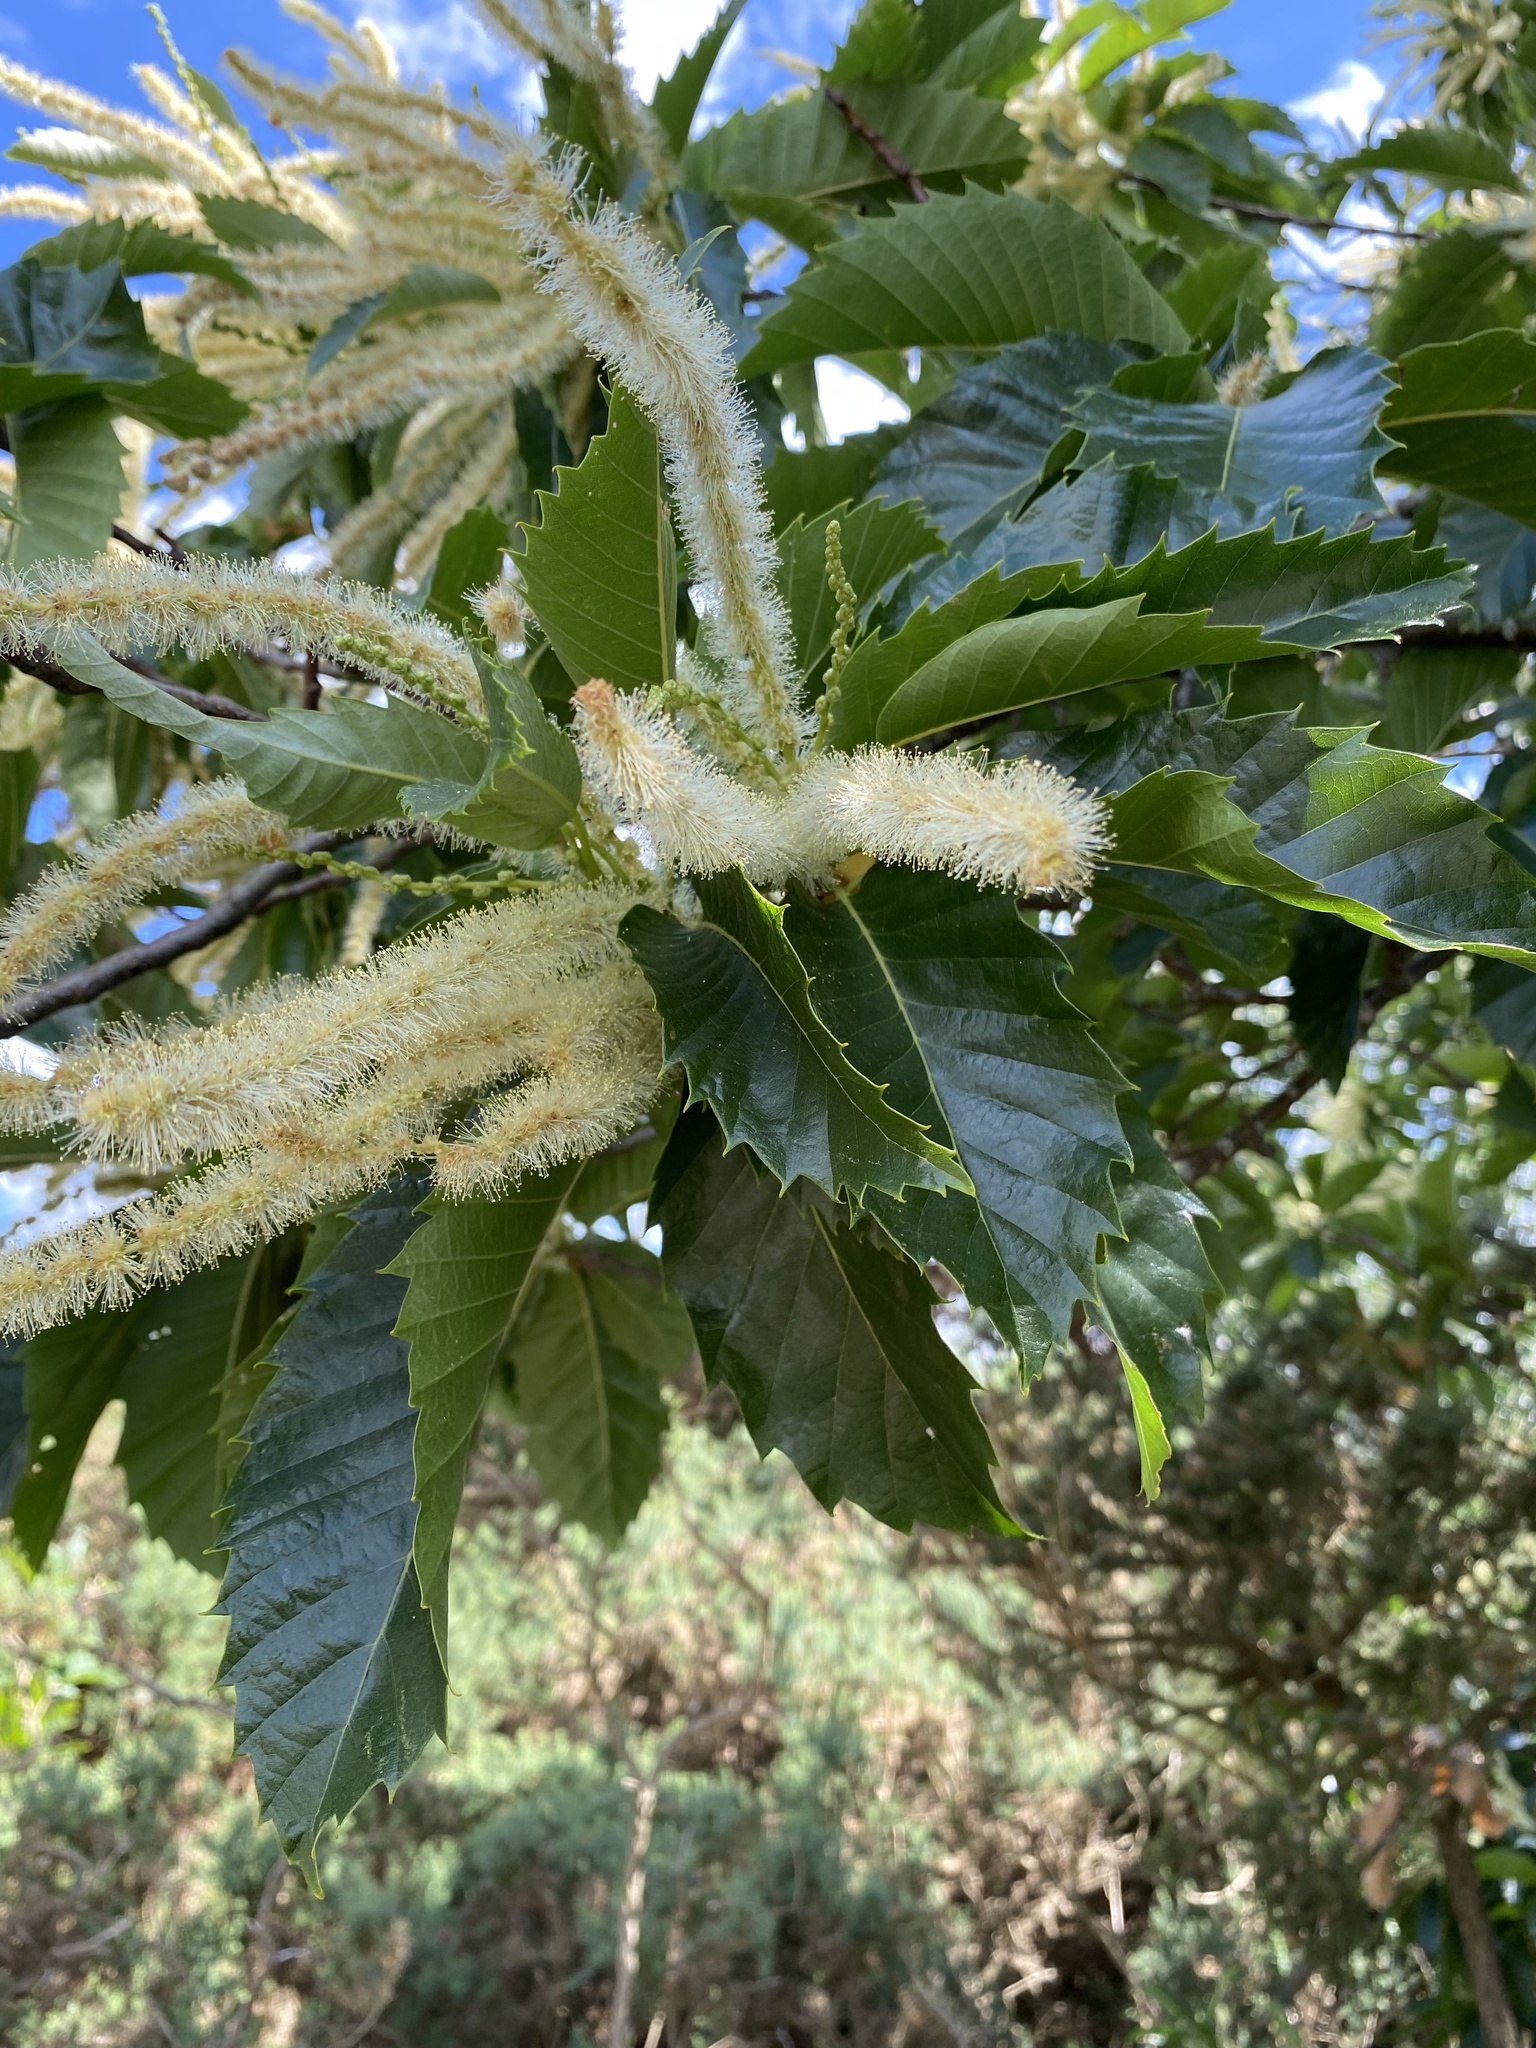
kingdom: Plantae
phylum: Tracheophyta
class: Magnoliopsida
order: Fagales
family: Fagaceae
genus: Castanea
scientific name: Castanea sativa
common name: Sweet chestnut
